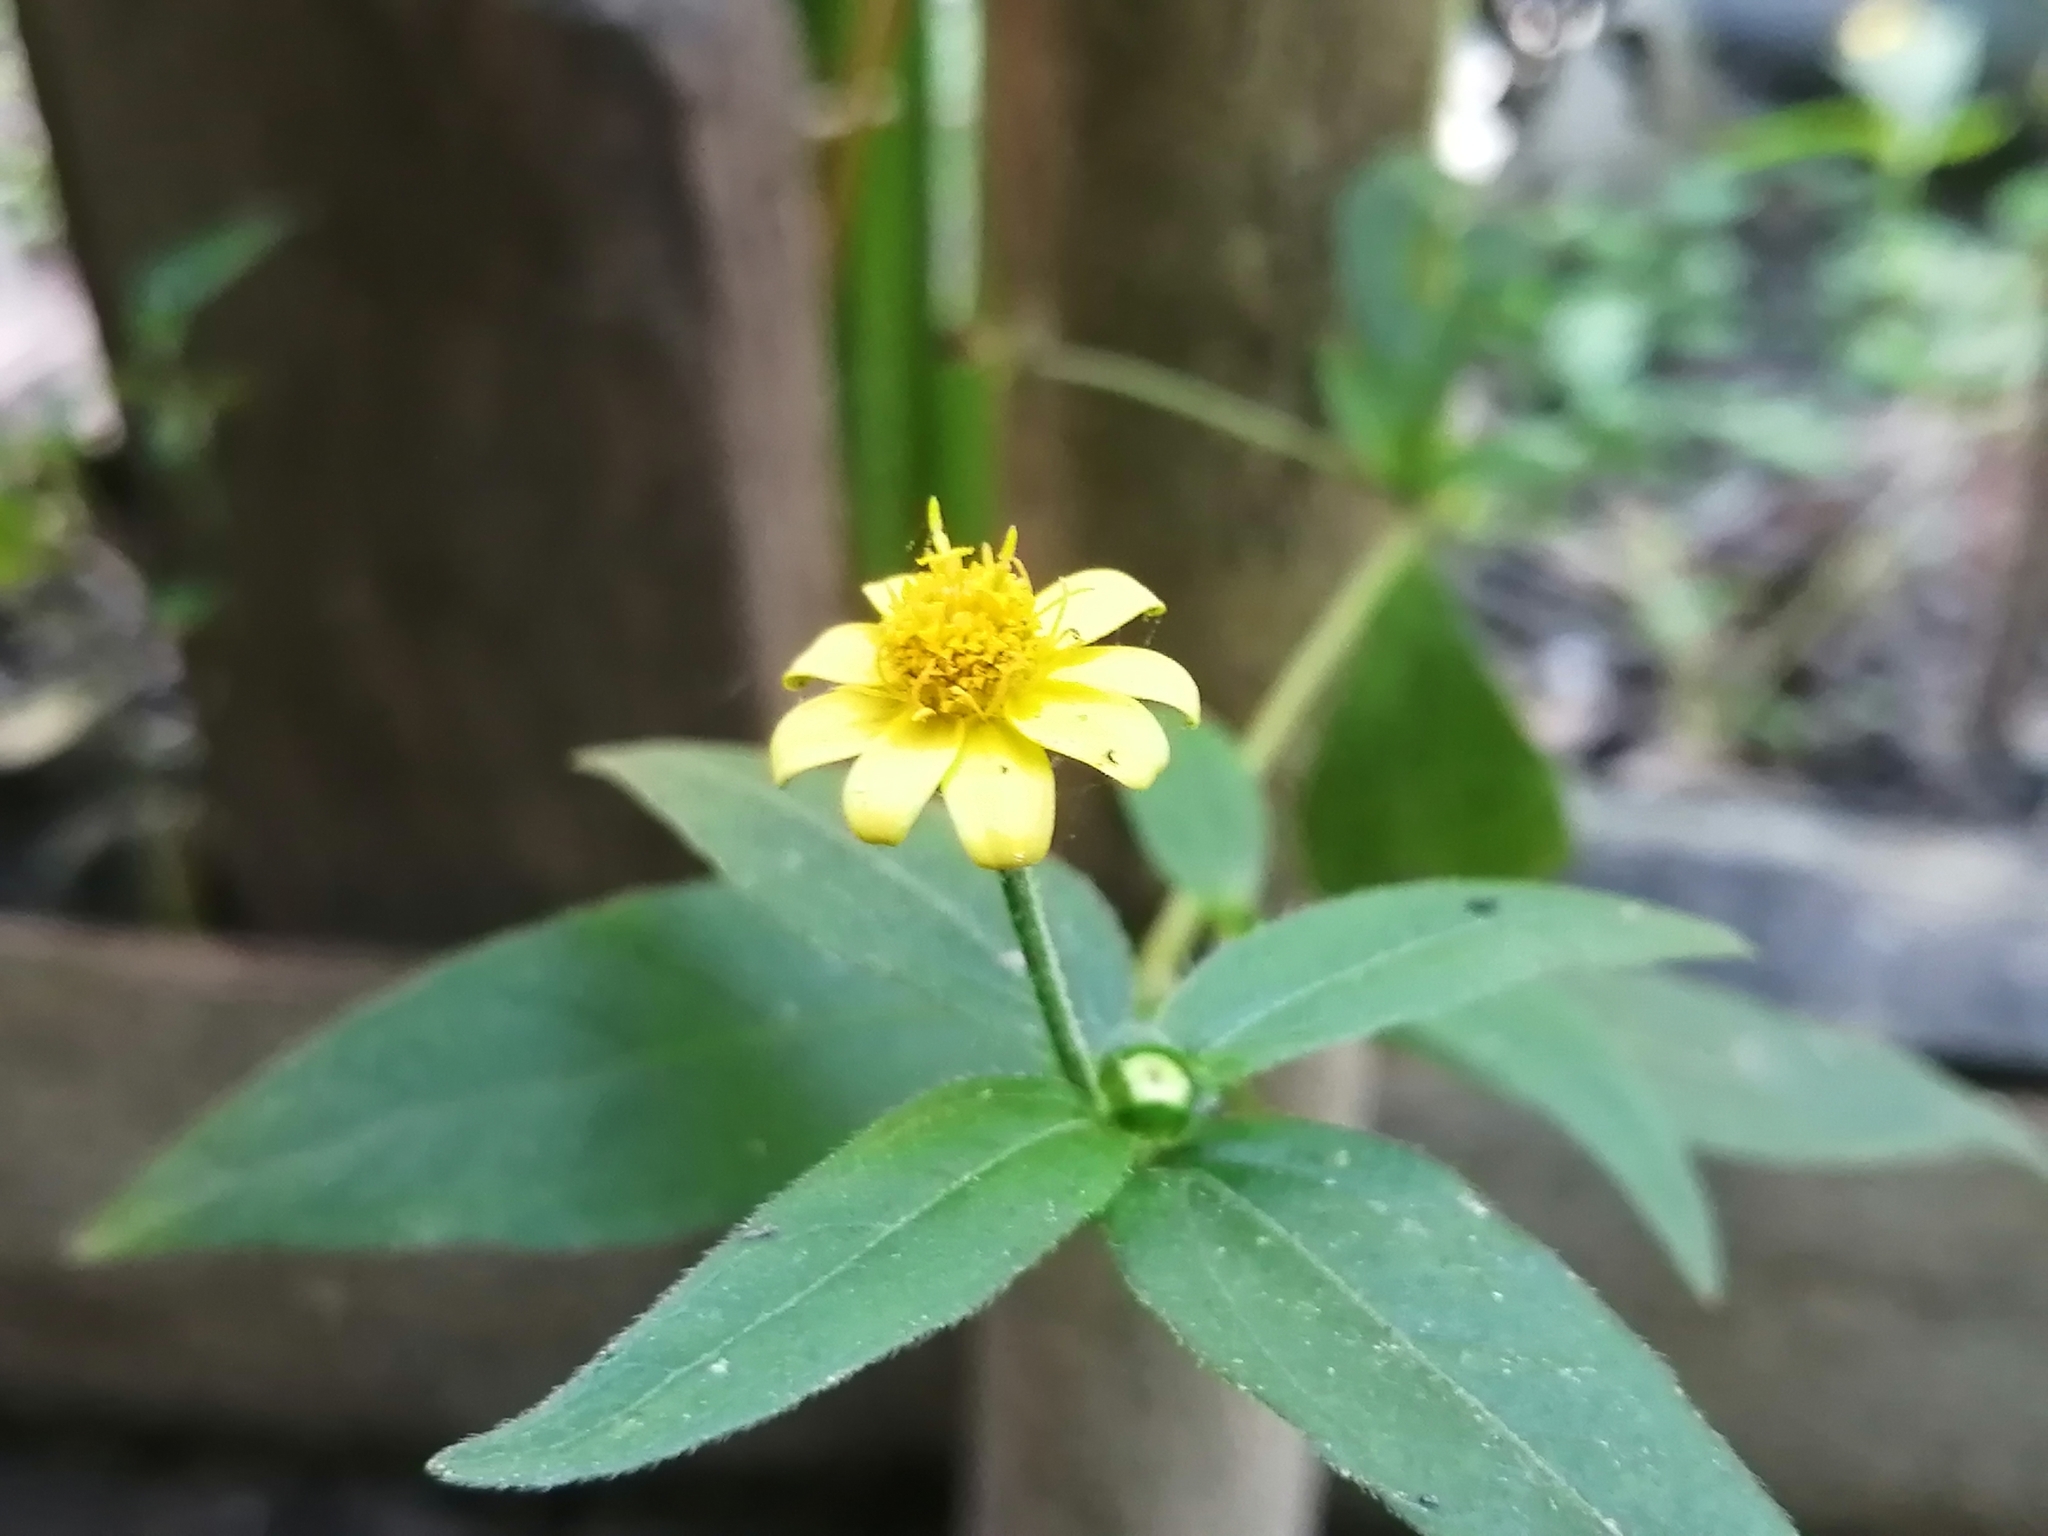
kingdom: Plantae
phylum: Tracheophyta
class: Magnoliopsida
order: Asterales
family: Asteraceae
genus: Melampodium
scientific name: Melampodium divaricatum
